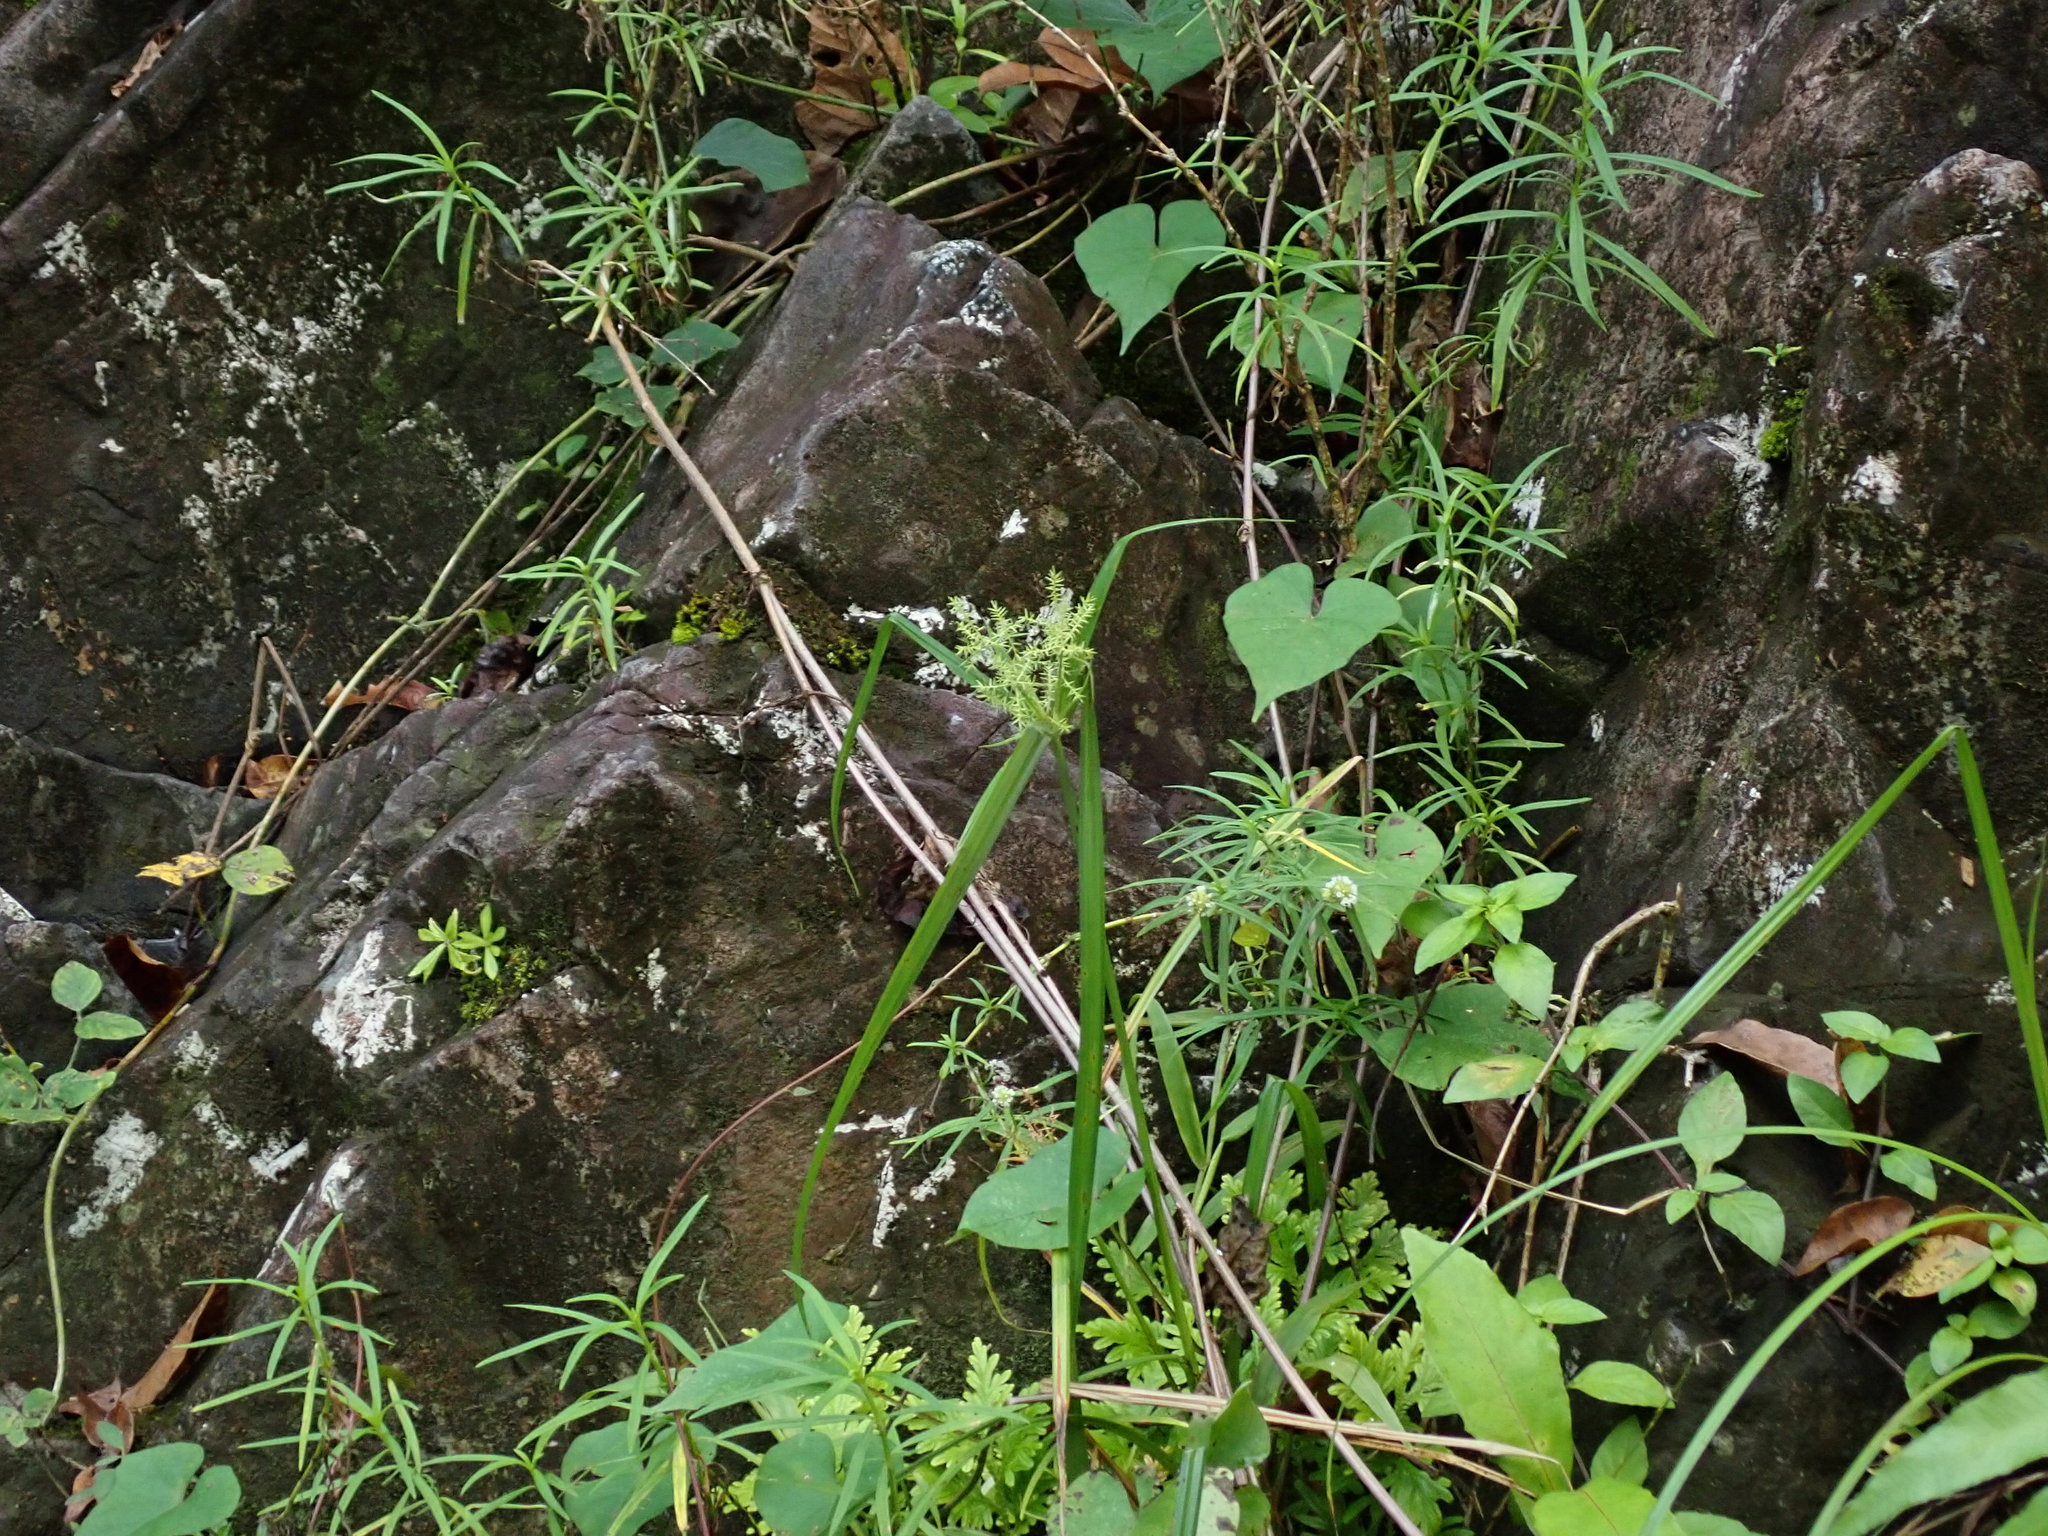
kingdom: Plantae
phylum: Tracheophyta
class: Liliopsida
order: Poales
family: Cyperaceae
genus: Cyperus
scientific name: Cyperus odoratus
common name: Fragrant flatsedge
